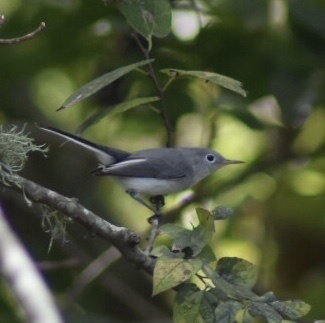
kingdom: Animalia
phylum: Chordata
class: Aves
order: Passeriformes
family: Polioptilidae
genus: Polioptila
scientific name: Polioptila caerulea
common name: Blue-gray gnatcatcher
